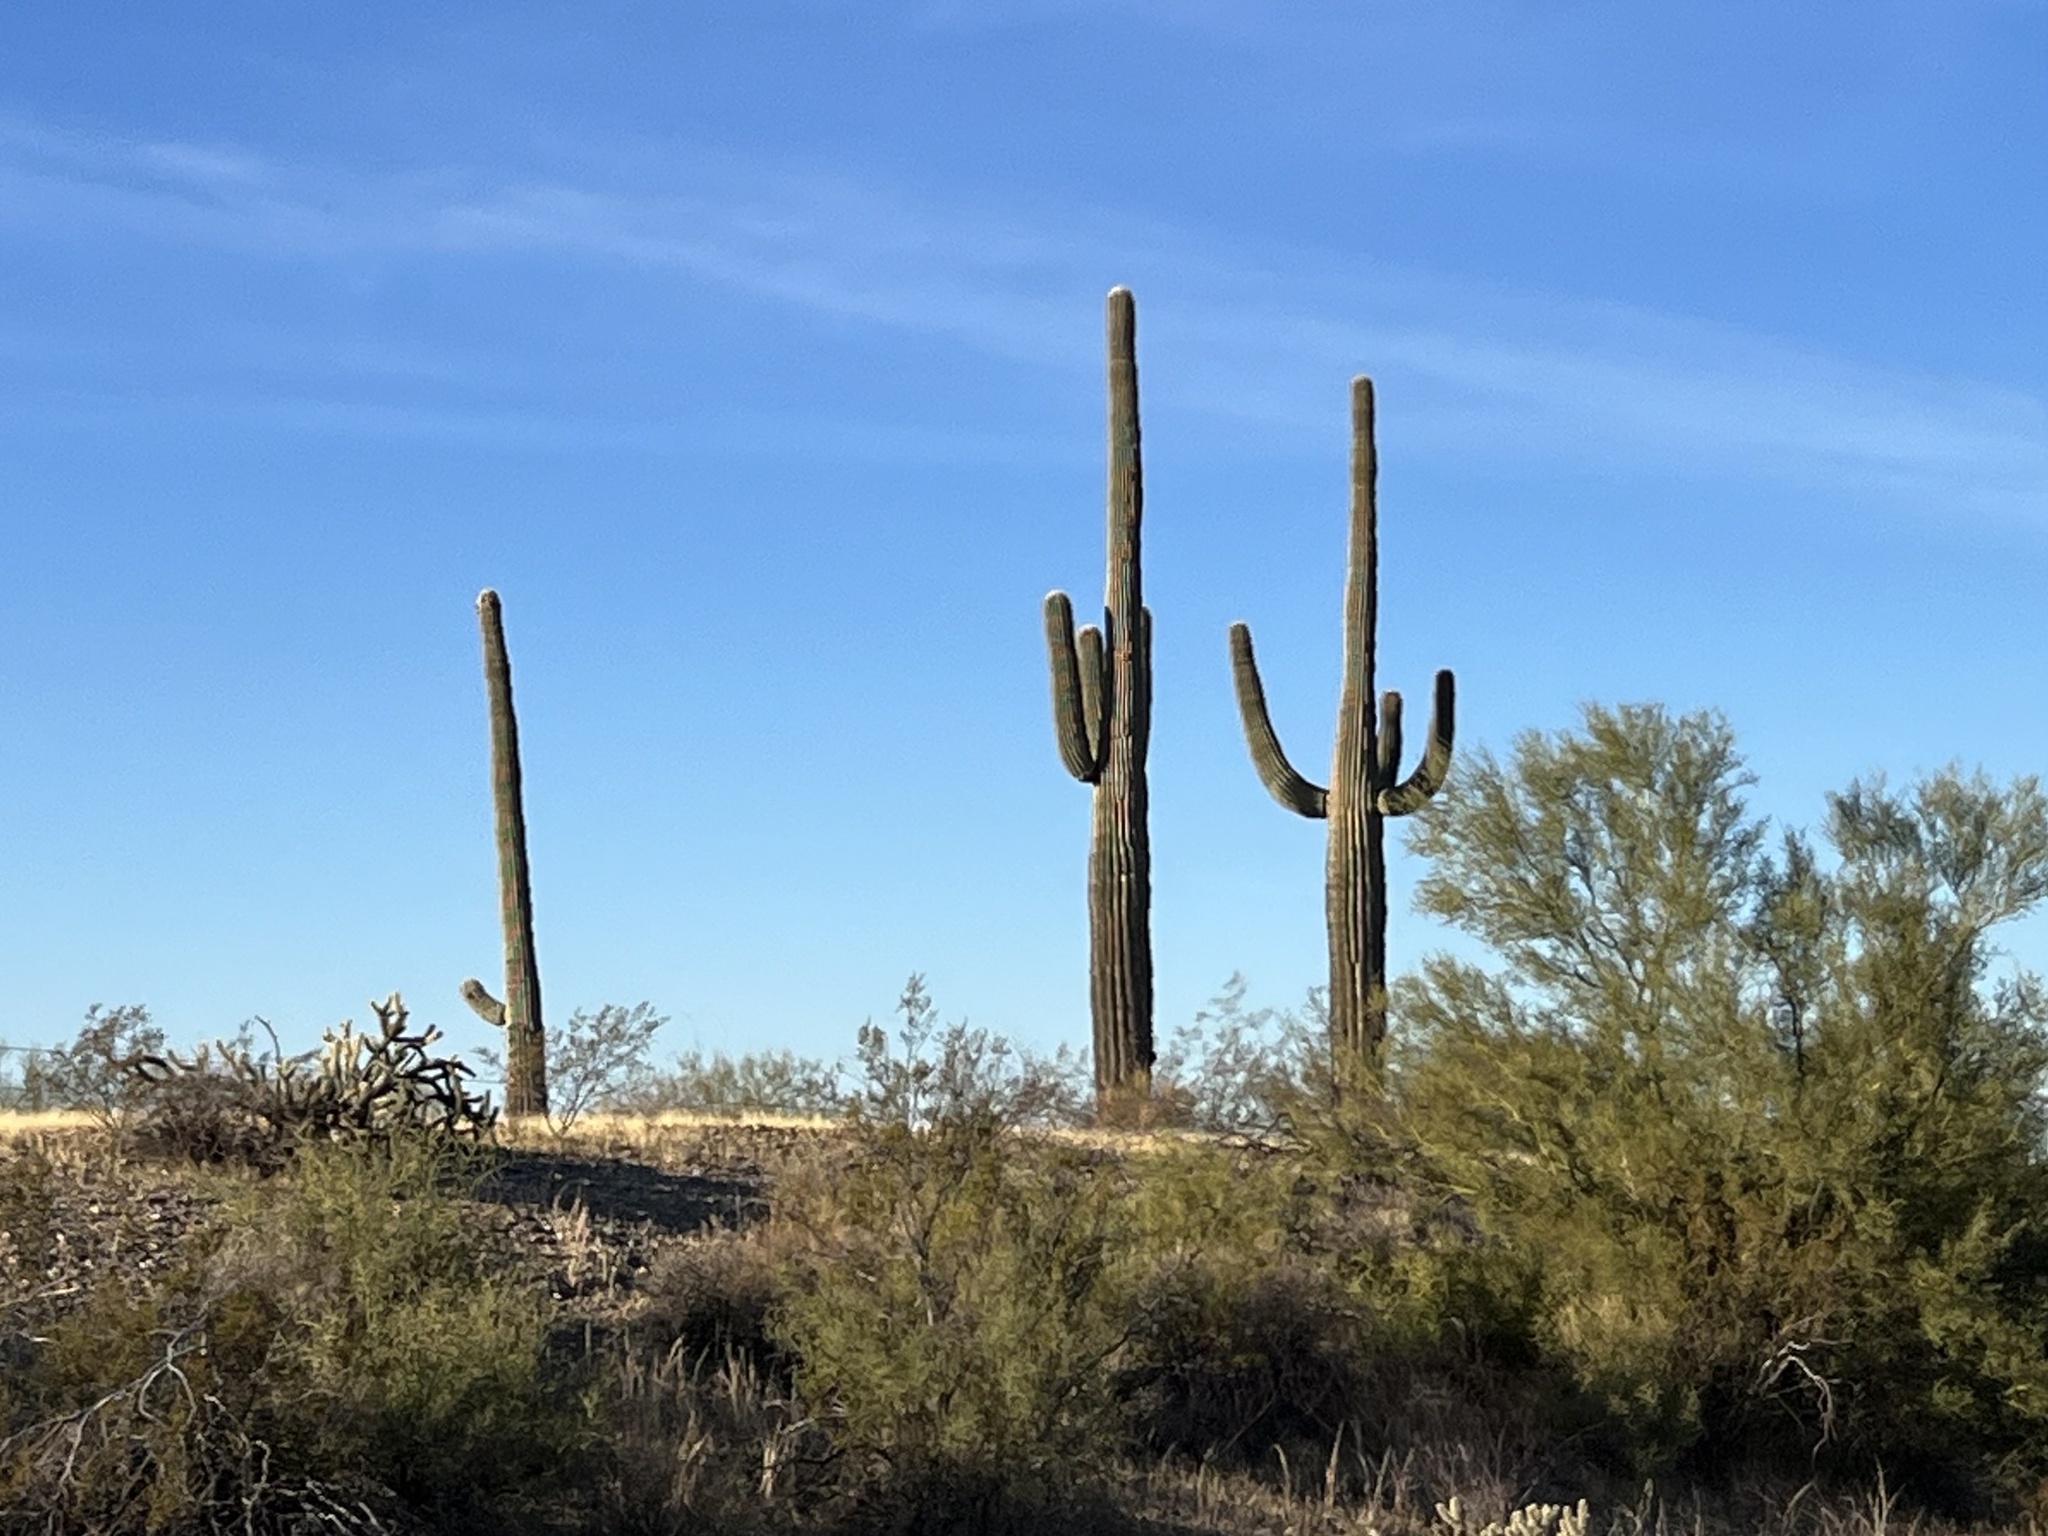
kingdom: Plantae
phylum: Tracheophyta
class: Magnoliopsida
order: Caryophyllales
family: Cactaceae
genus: Carnegiea
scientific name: Carnegiea gigantea
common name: Saguaro
